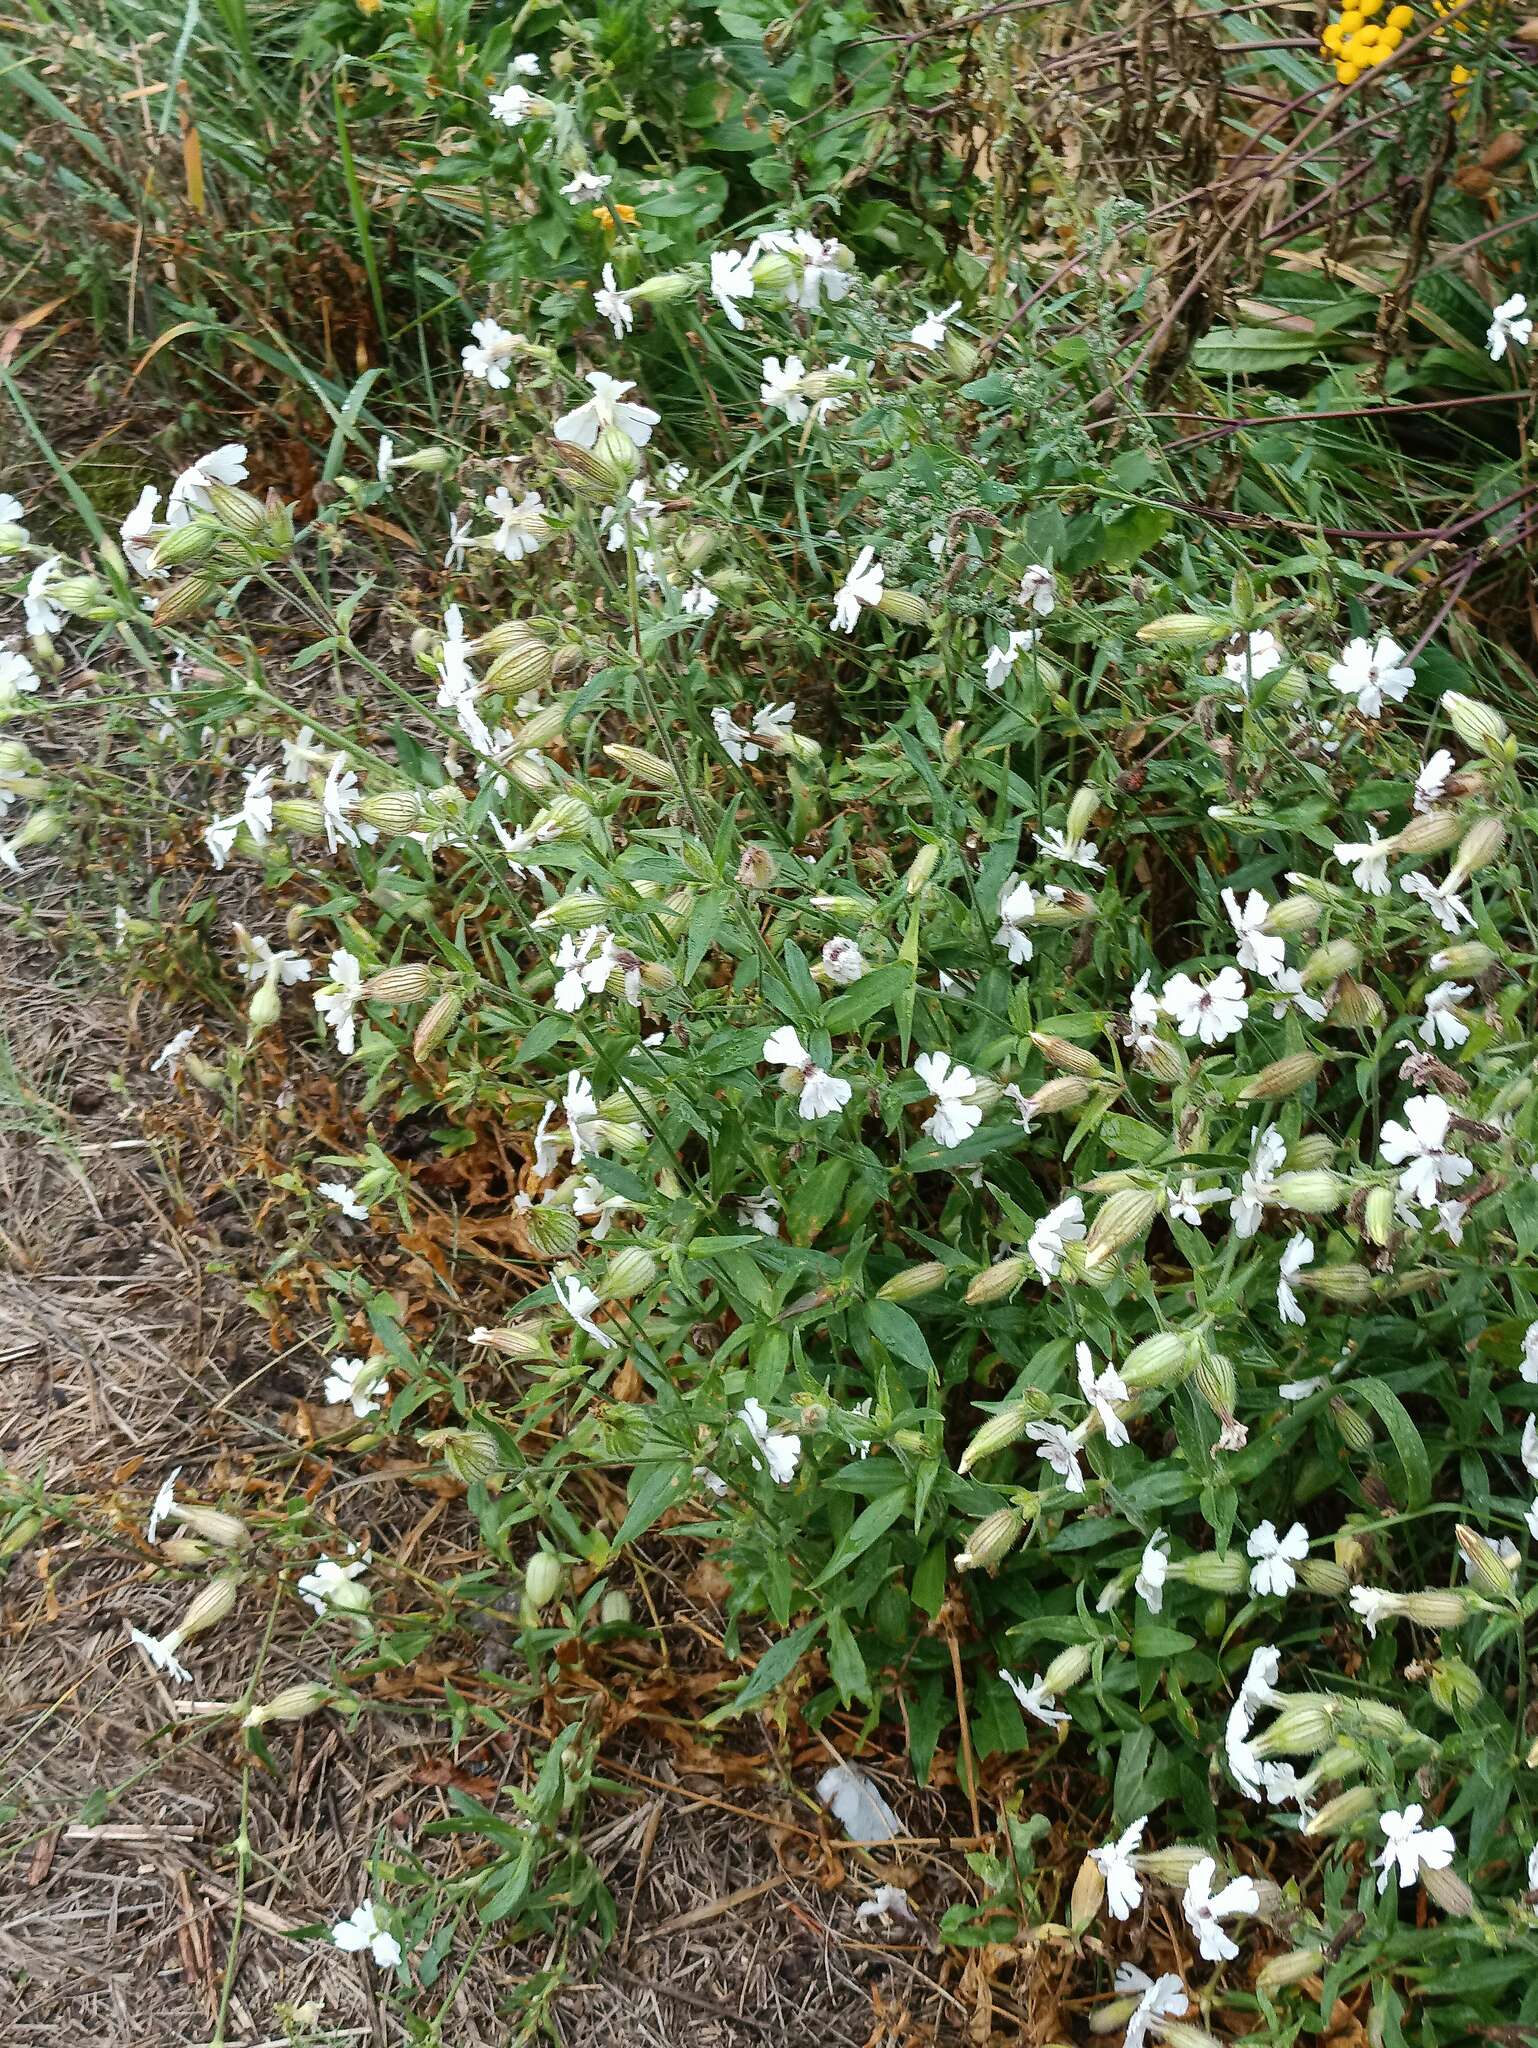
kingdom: Plantae
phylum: Tracheophyta
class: Magnoliopsida
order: Caryophyllales
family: Caryophyllaceae
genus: Silene
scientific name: Silene latifolia
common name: White campion
